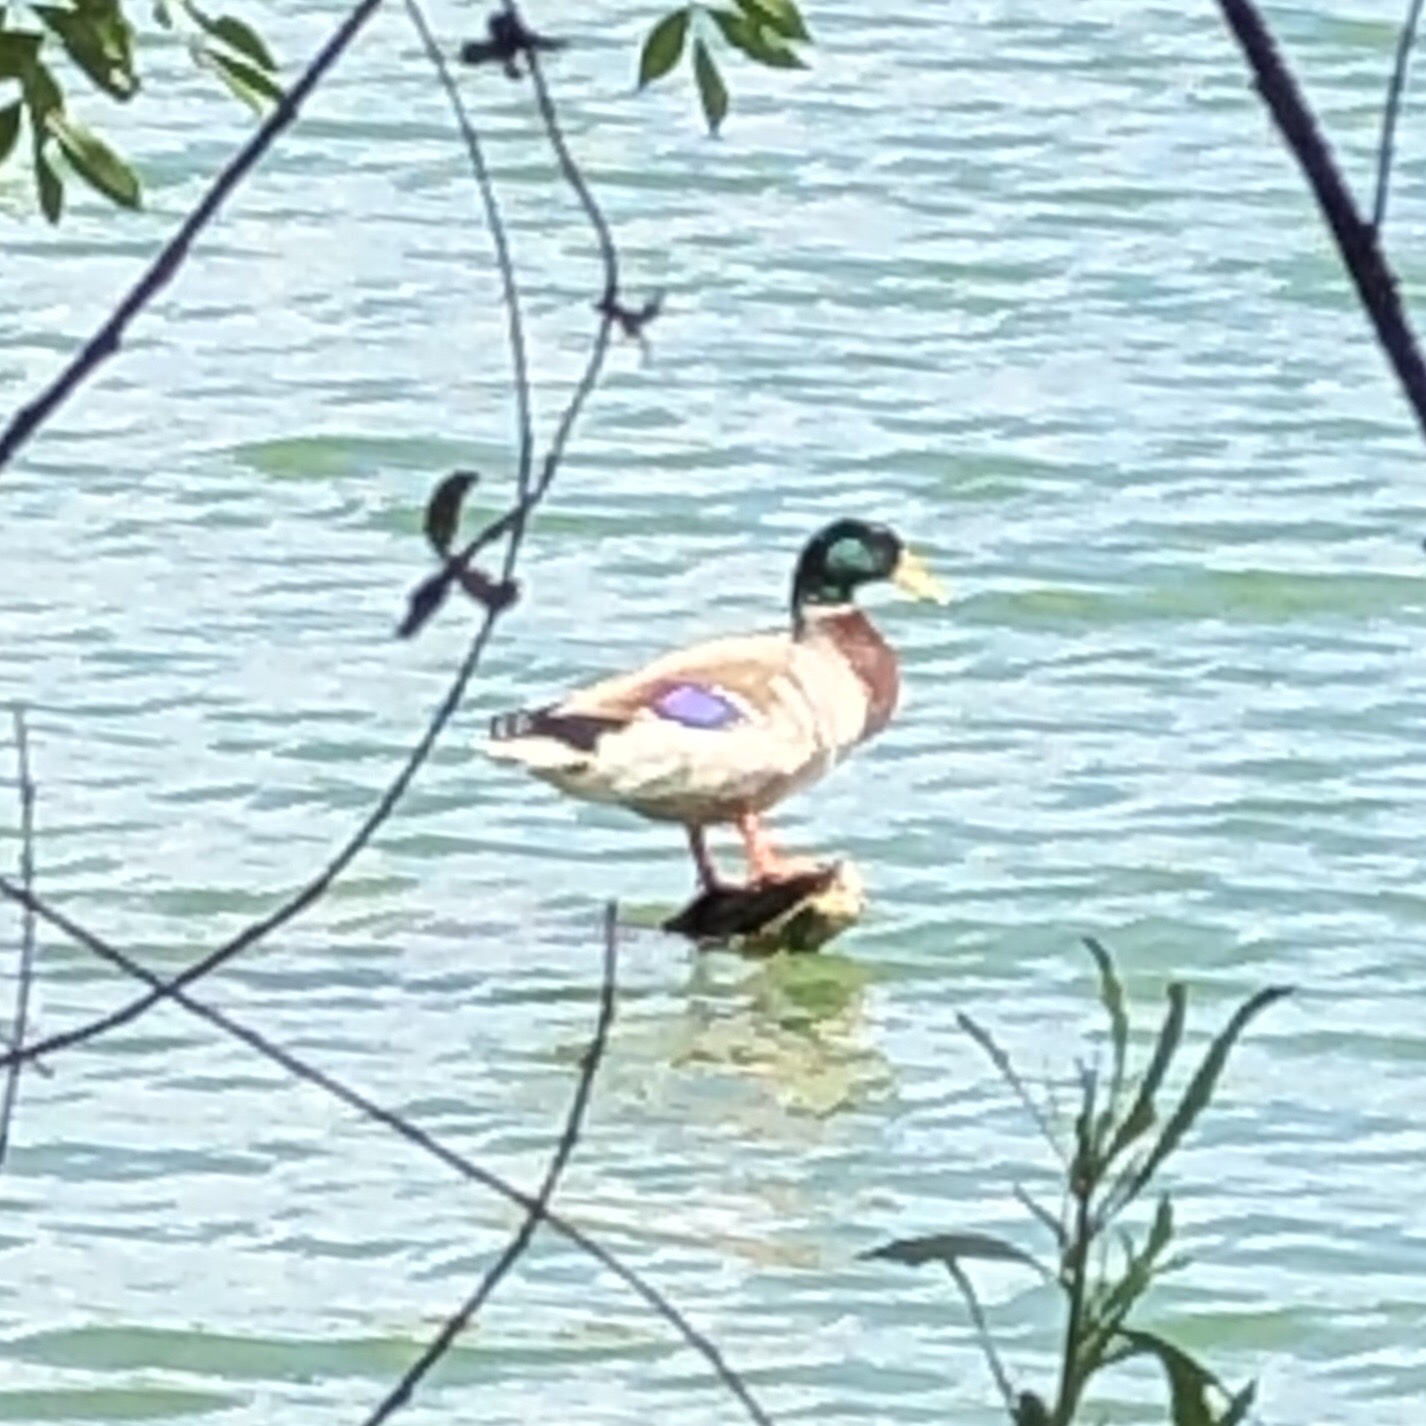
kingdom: Animalia
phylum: Chordata
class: Aves
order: Anseriformes
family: Anatidae
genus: Anas
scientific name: Anas platyrhynchos
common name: Mallard
